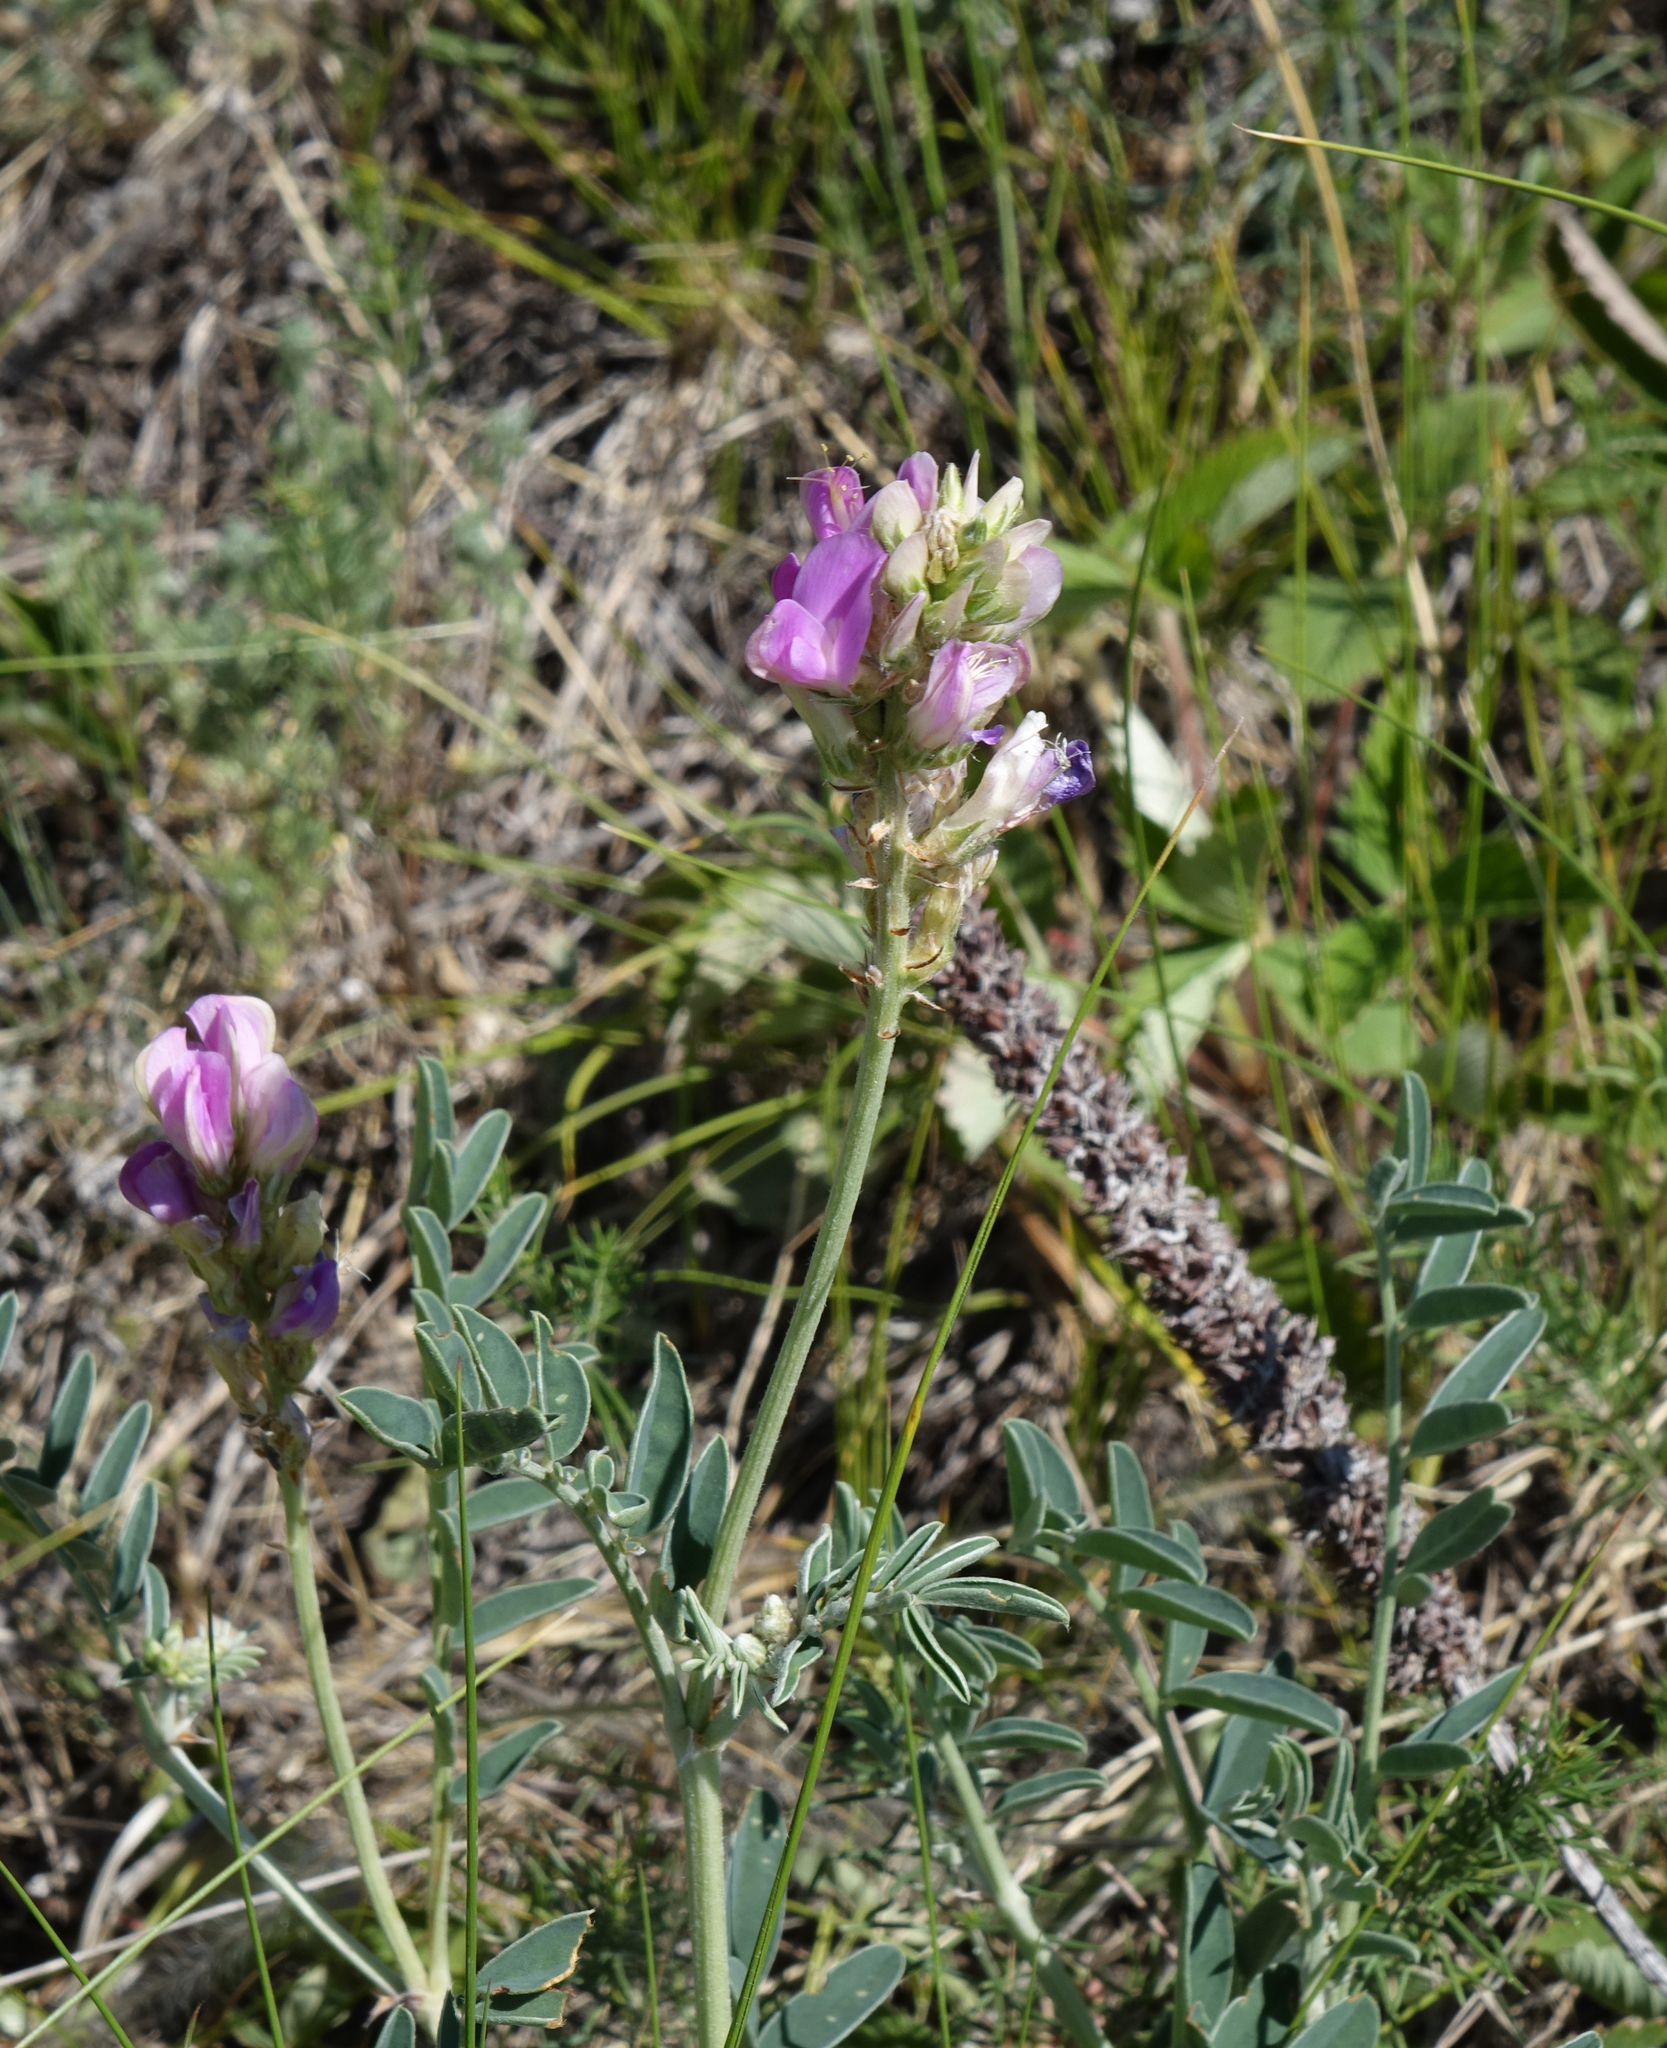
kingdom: Plantae
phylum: Tracheophyta
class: Magnoliopsida
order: Fabales
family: Fabaceae
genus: Hedysarum
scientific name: Hedysarum gmelinii
